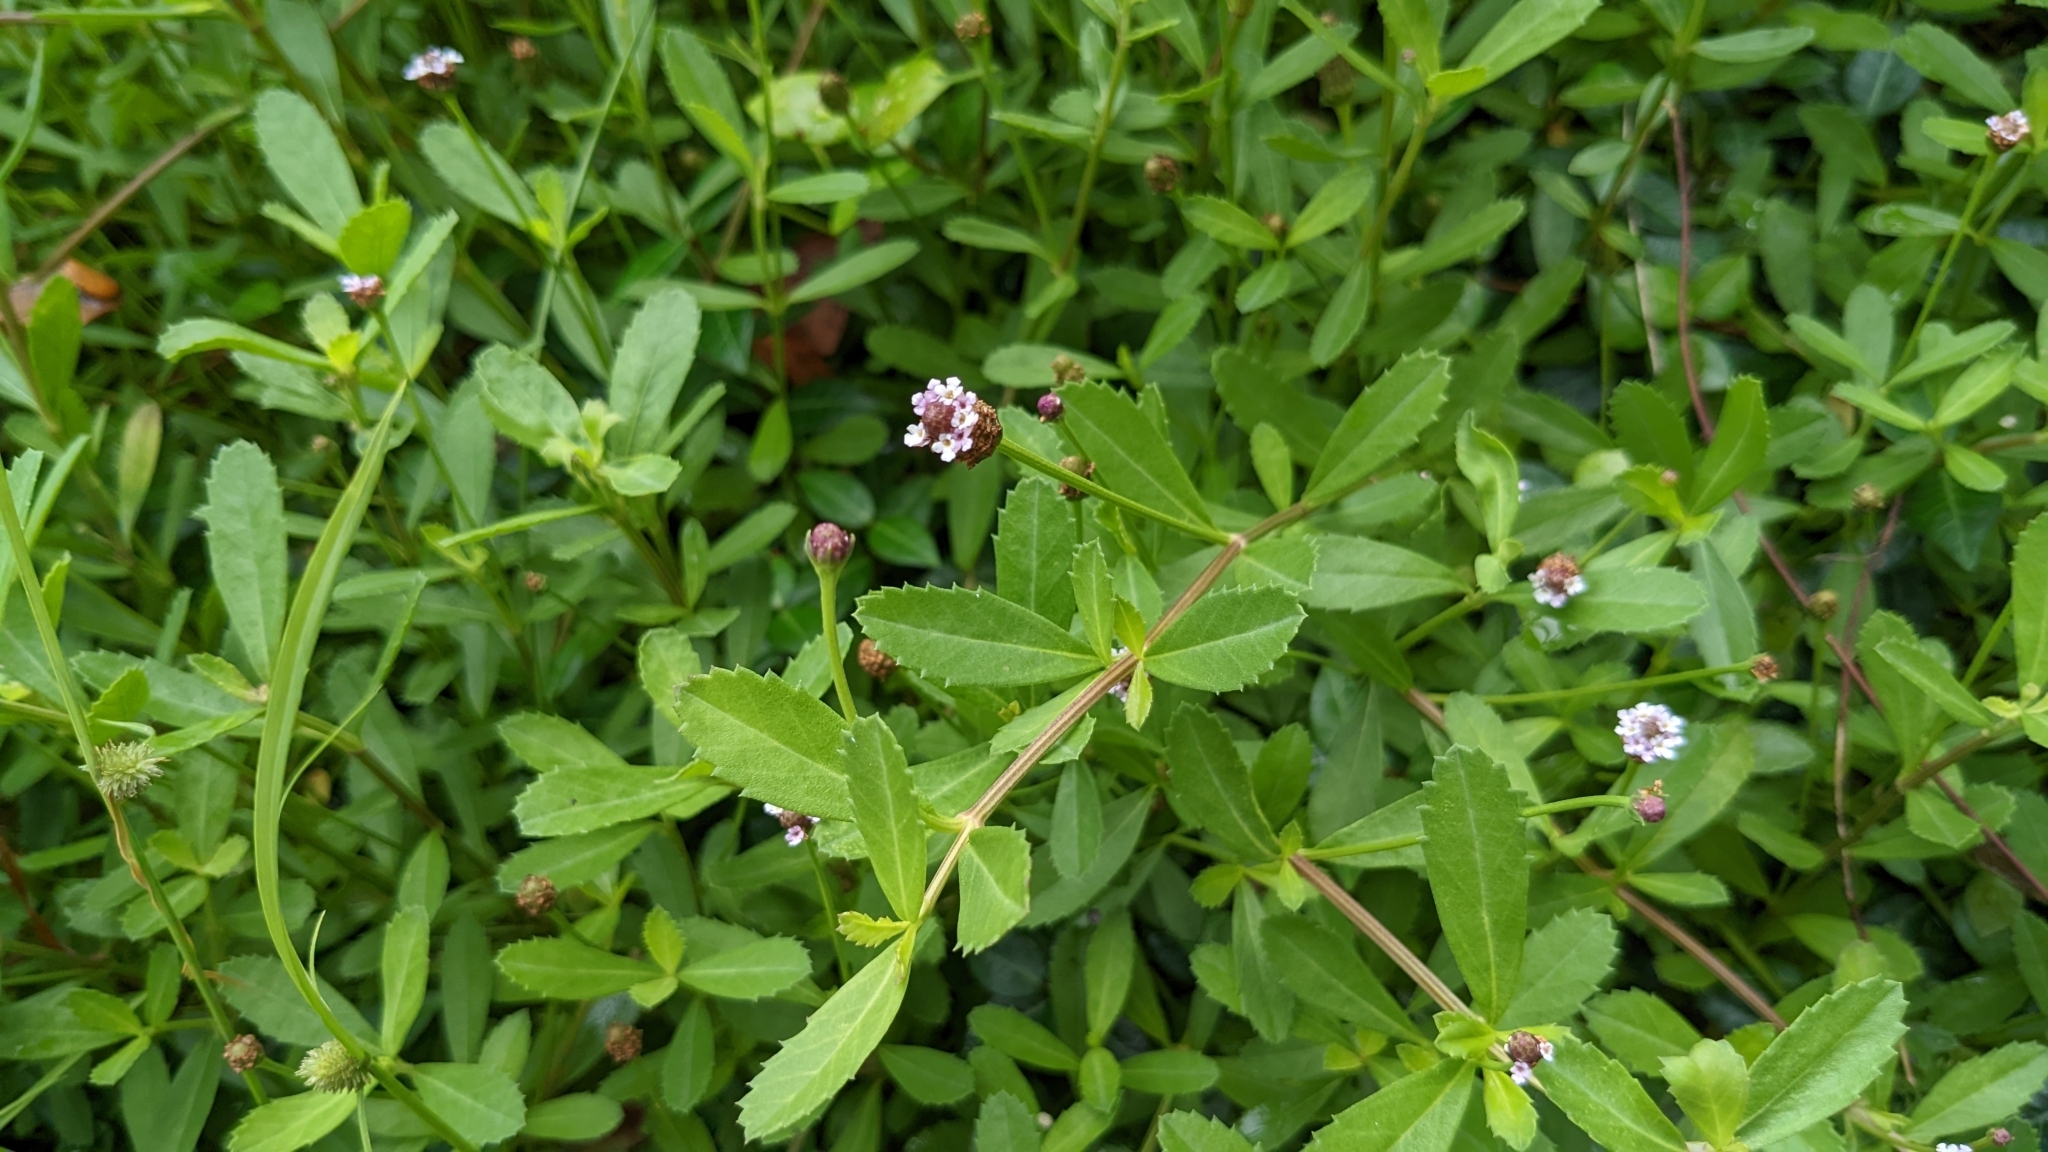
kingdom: Plantae
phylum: Tracheophyta
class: Magnoliopsida
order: Lamiales
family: Verbenaceae
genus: Phyla
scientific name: Phyla nodiflora
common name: Frogfruit
